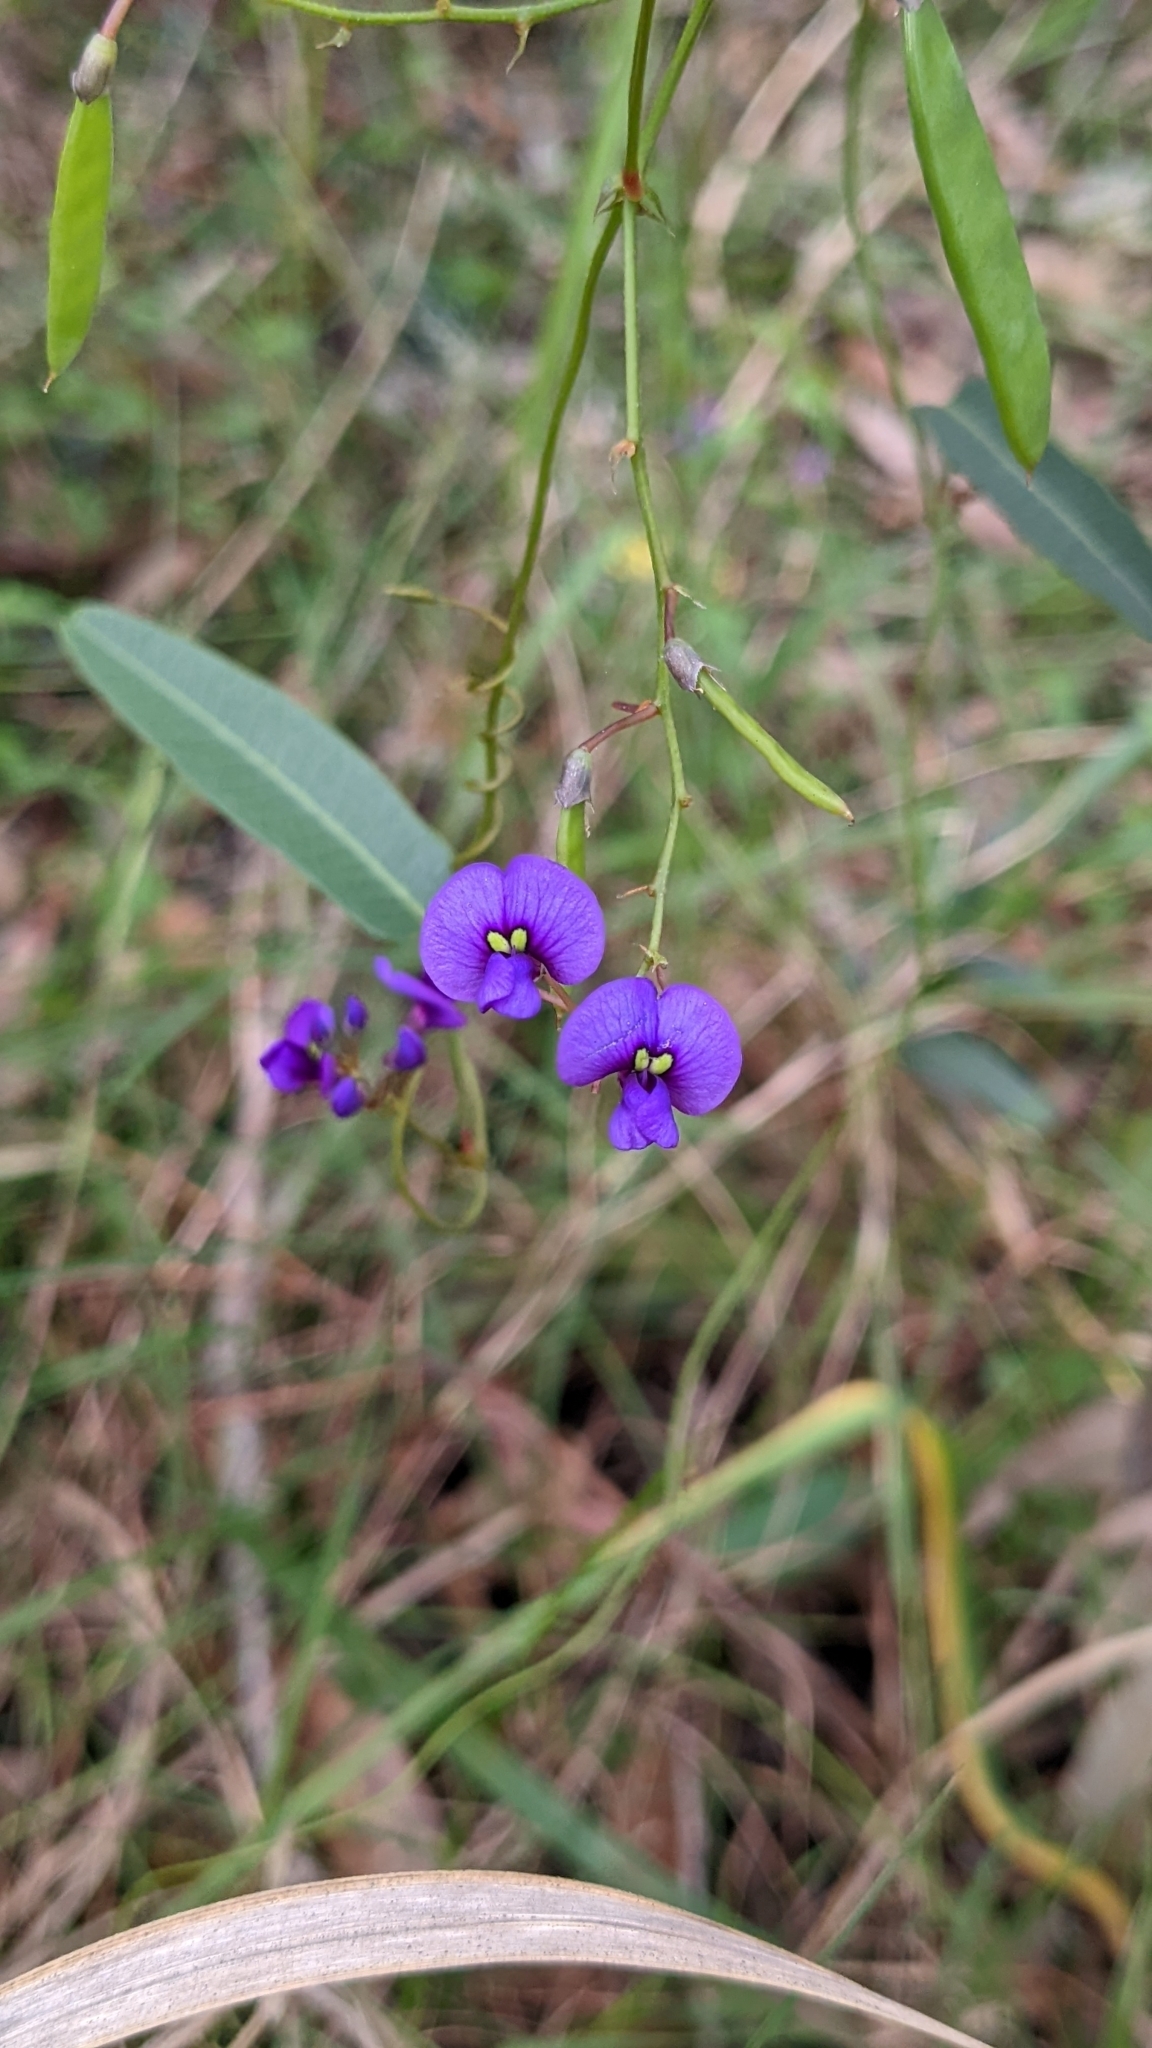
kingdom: Plantae
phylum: Tracheophyta
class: Magnoliopsida
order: Fabales
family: Fabaceae
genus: Hardenbergia
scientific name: Hardenbergia violacea
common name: Coral-pea
